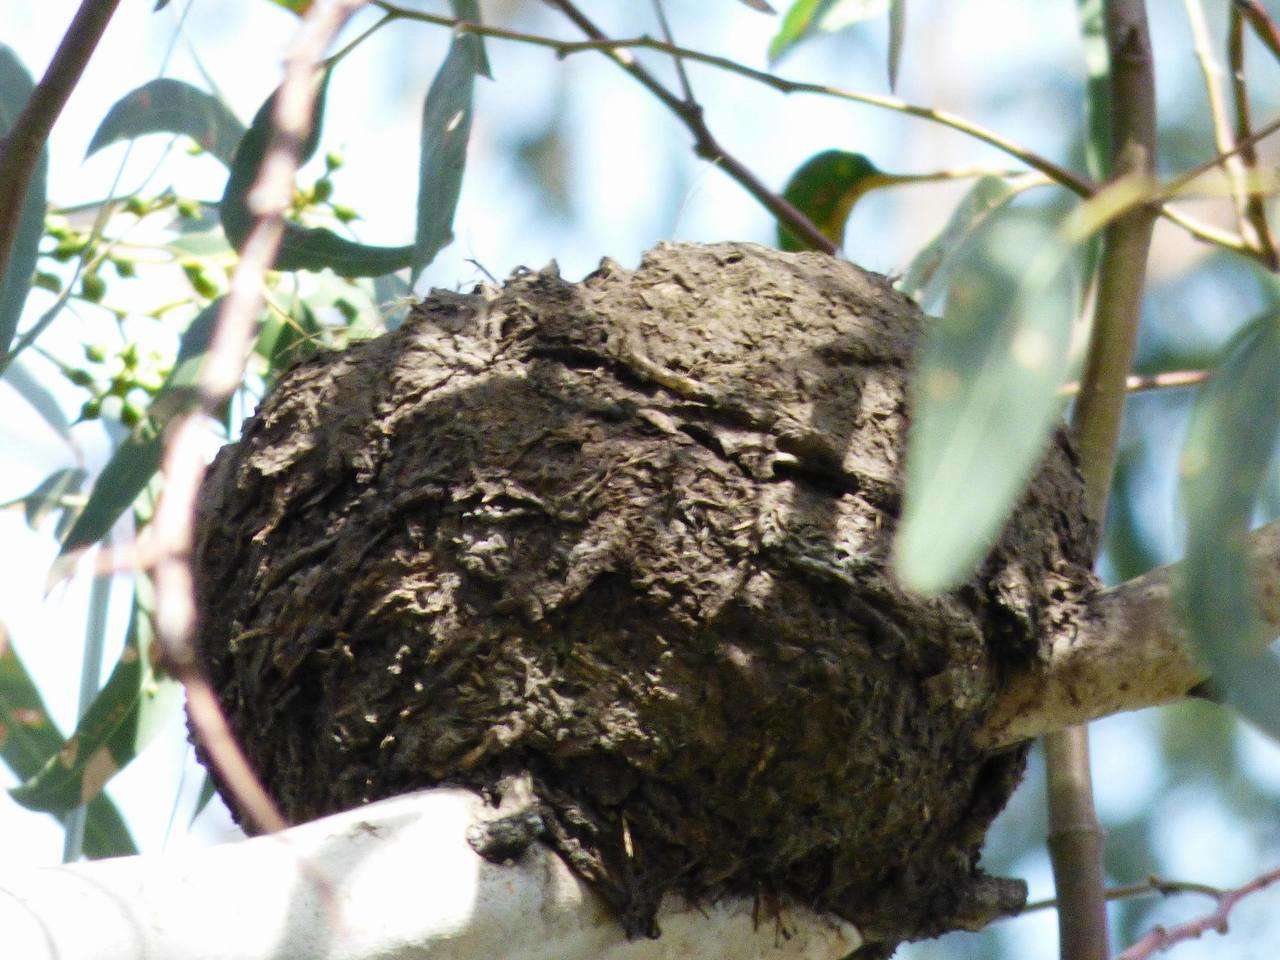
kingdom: Animalia
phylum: Chordata
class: Aves
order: Passeriformes
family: Monarchidae
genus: Grallina
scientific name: Grallina cyanoleuca
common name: Magpie-lark
